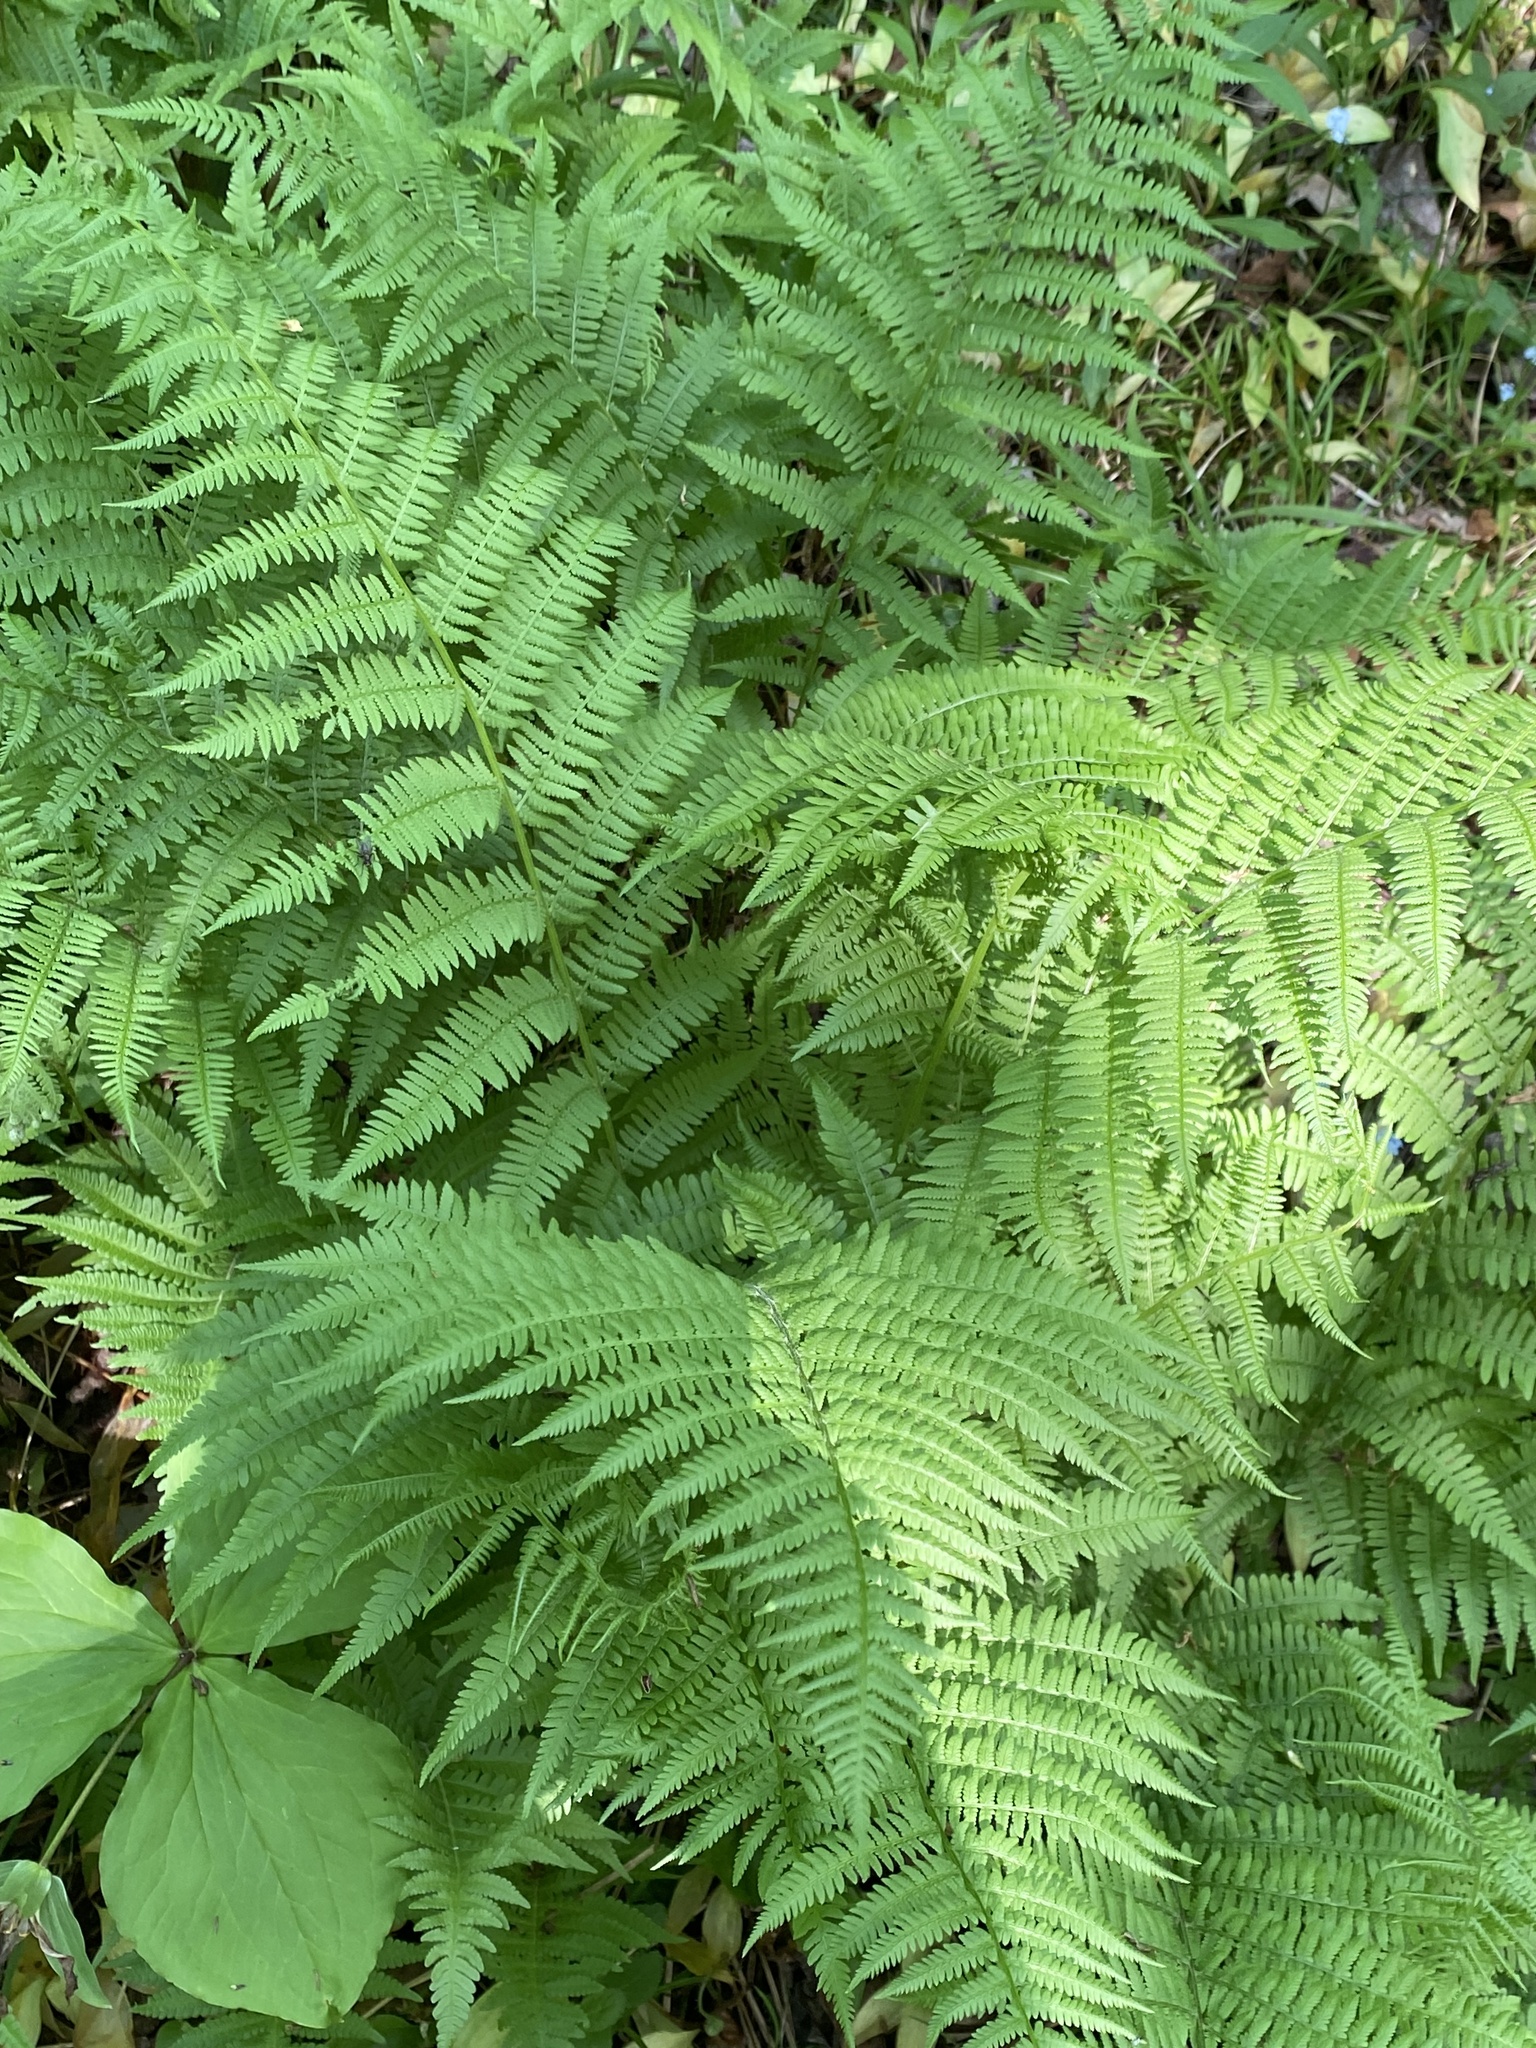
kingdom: Plantae
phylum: Tracheophyta
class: Polypodiopsida
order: Polypodiales
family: Athyriaceae
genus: Athyrium
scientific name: Athyrium angustum
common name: Northern lady fern
